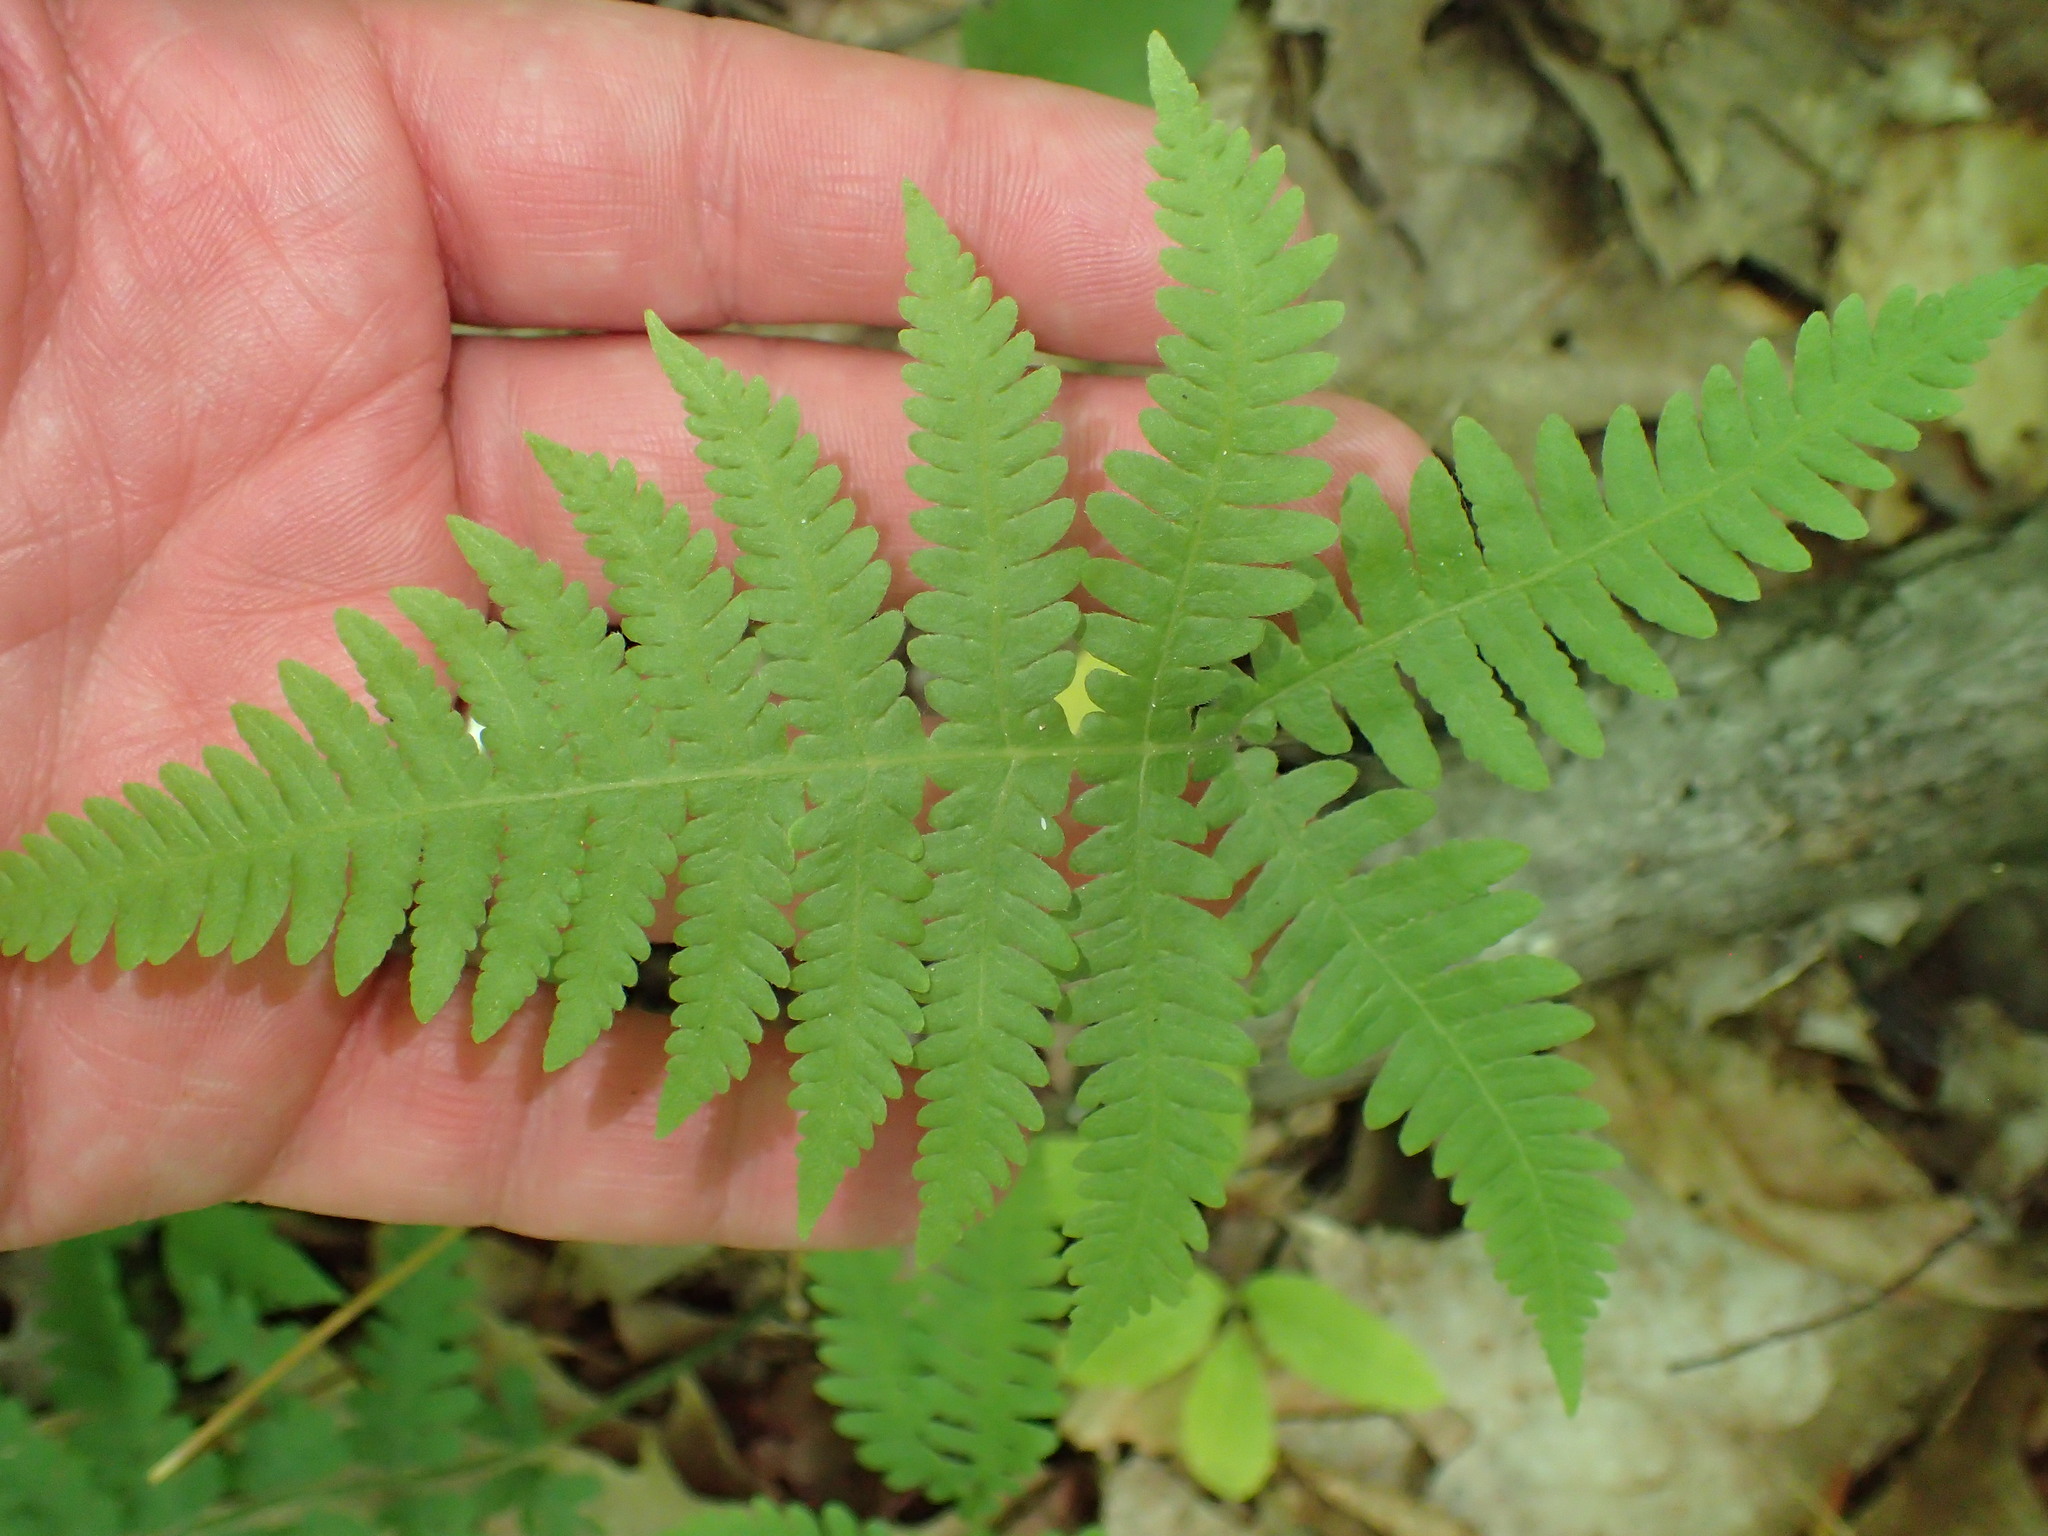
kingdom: Plantae
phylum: Tracheophyta
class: Polypodiopsida
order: Polypodiales
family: Thelypteridaceae
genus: Phegopteris
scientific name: Phegopteris hexagonoptera
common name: Broad beech fern
